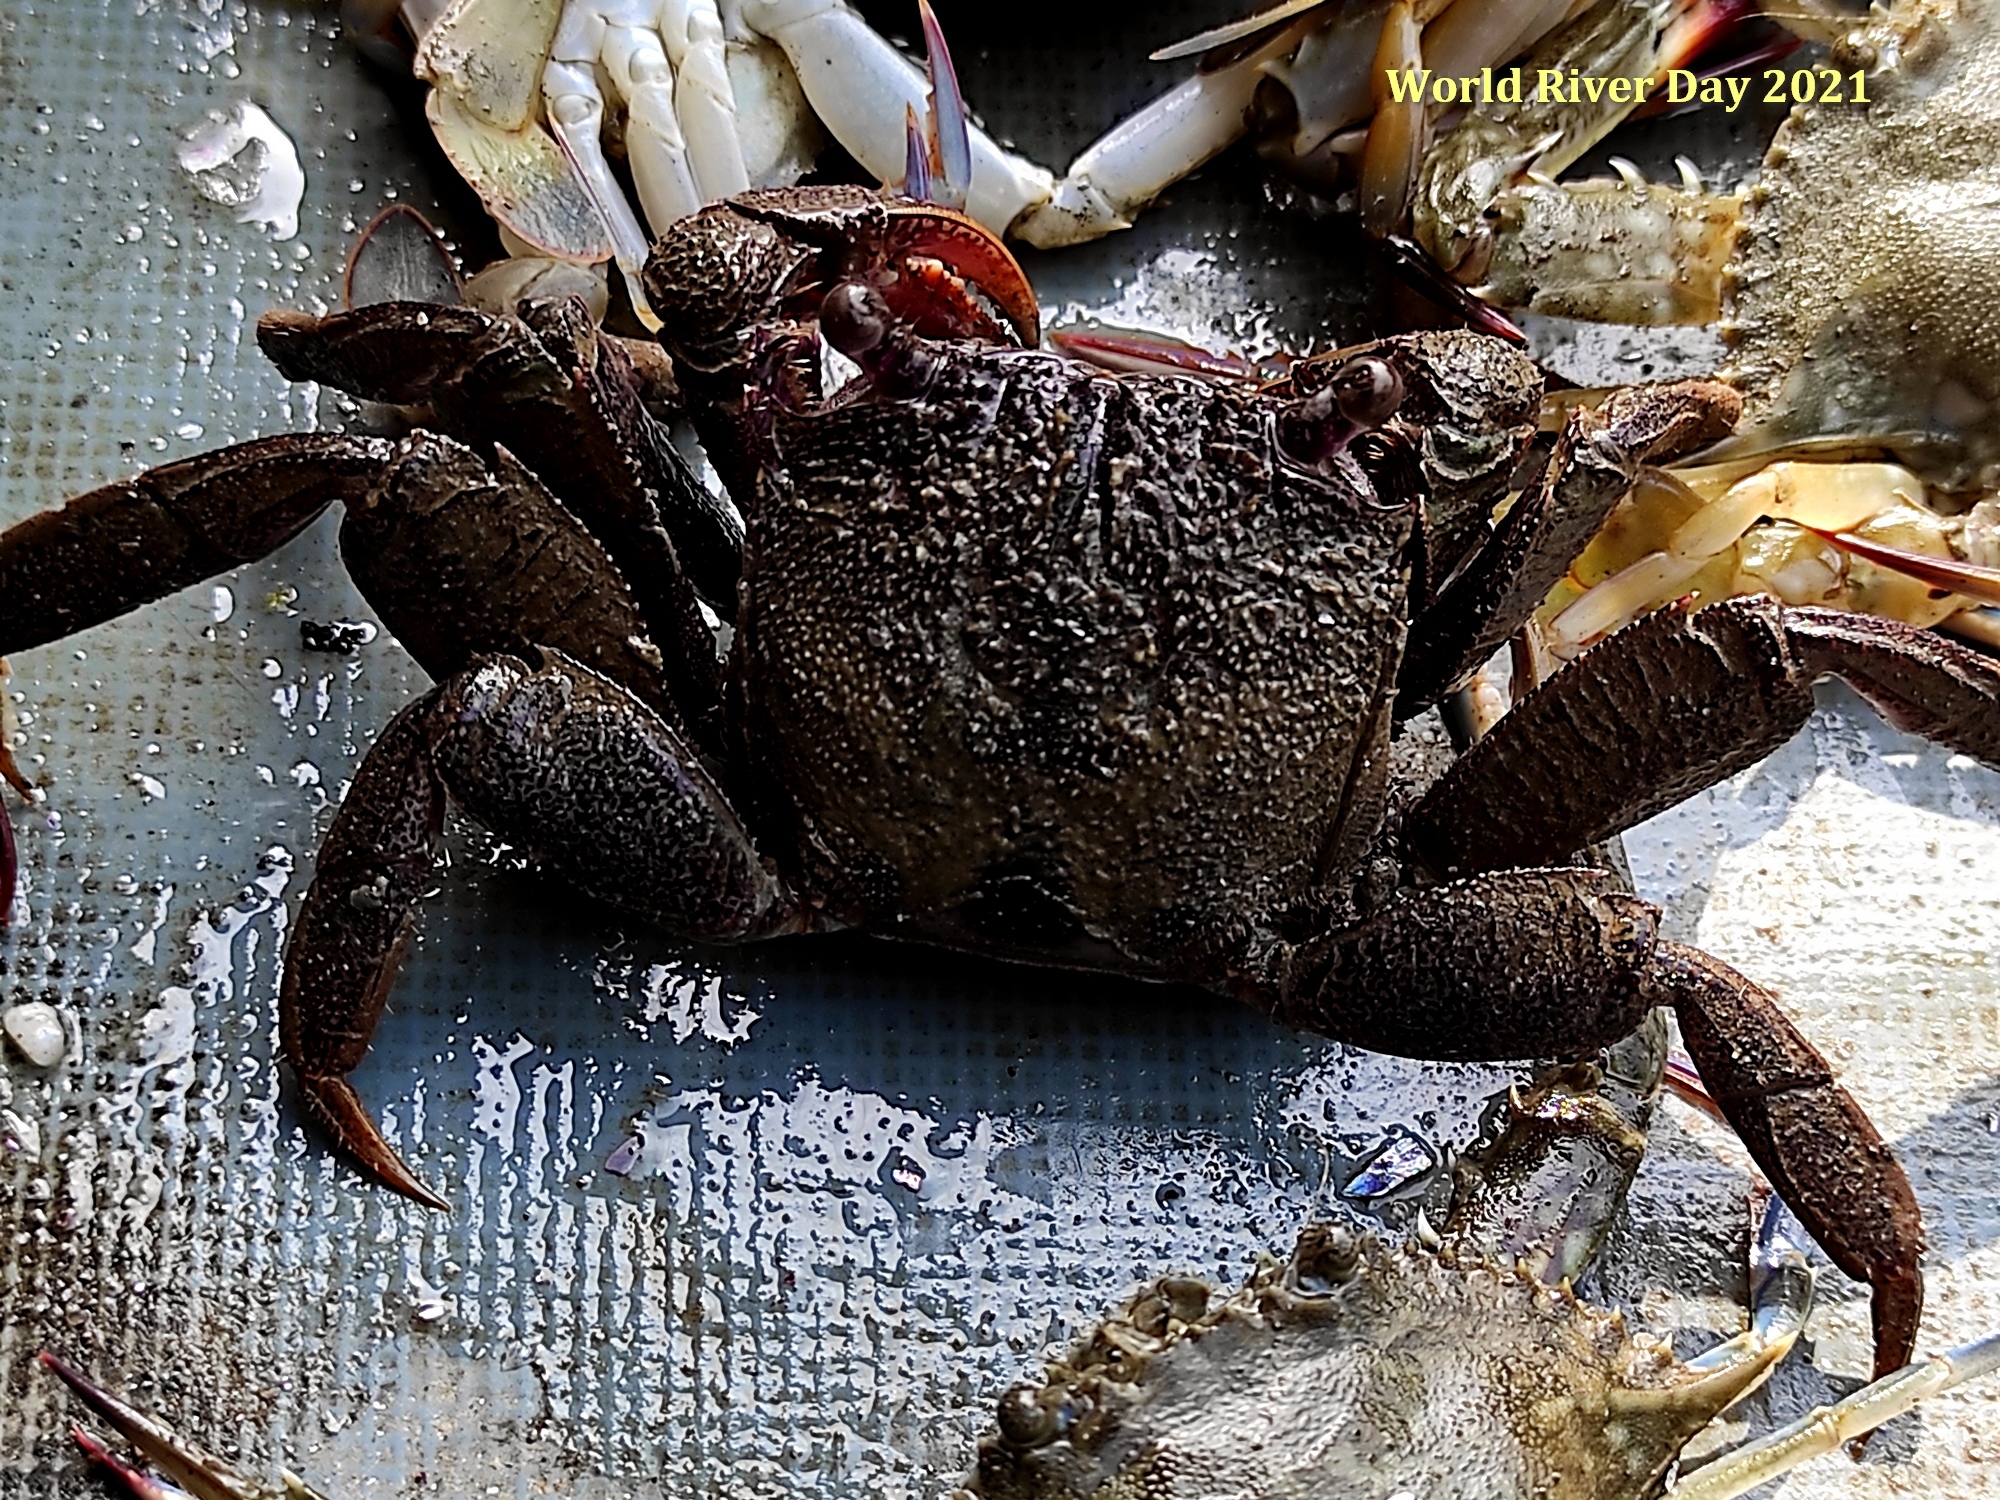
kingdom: Animalia
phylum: Arthropoda
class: Malacostraca
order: Decapoda
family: Sesarmidae
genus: Episesarma
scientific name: Episesarma mederi
